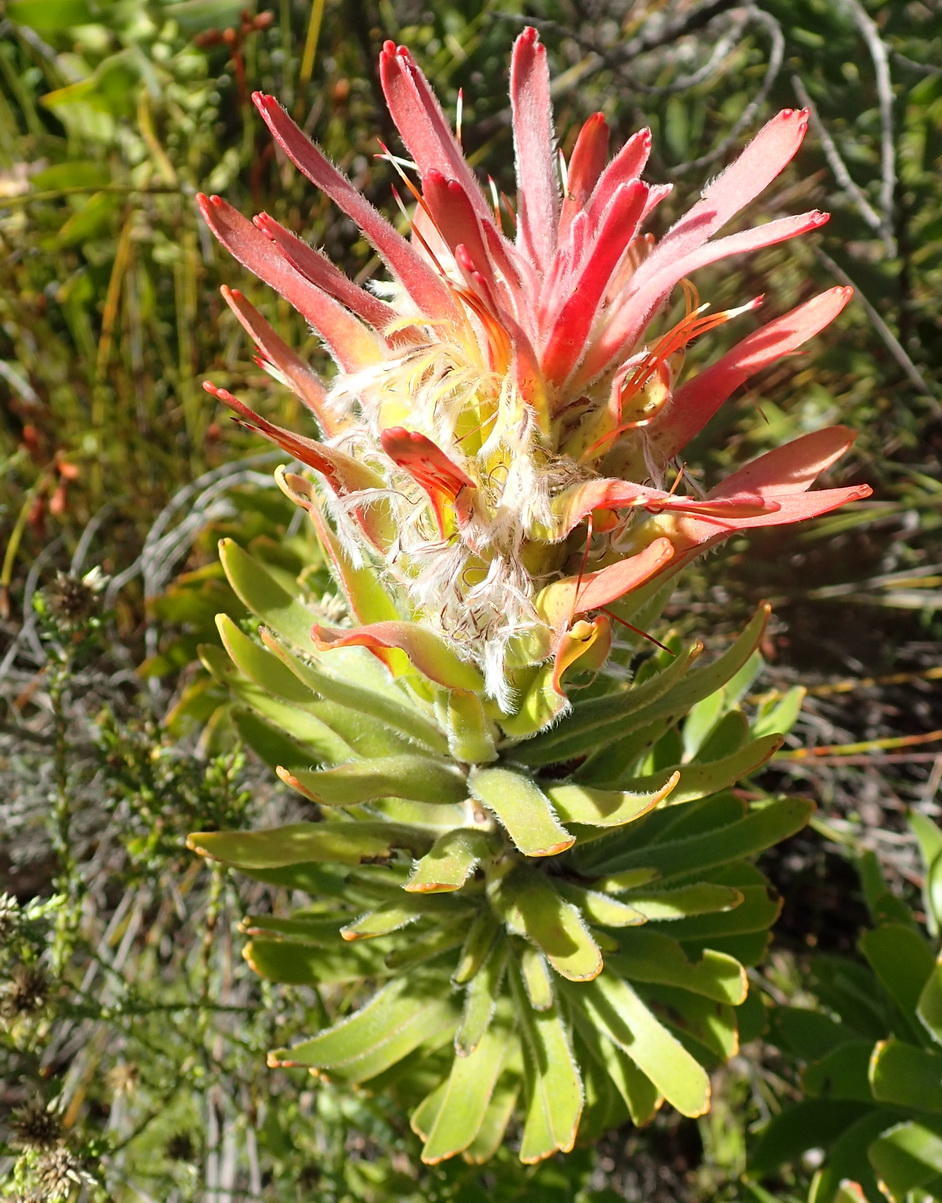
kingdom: Plantae
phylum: Tracheophyta
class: Magnoliopsida
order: Proteales
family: Proteaceae
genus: Mimetes
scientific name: Mimetes cucullatus
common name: Common pagoda
